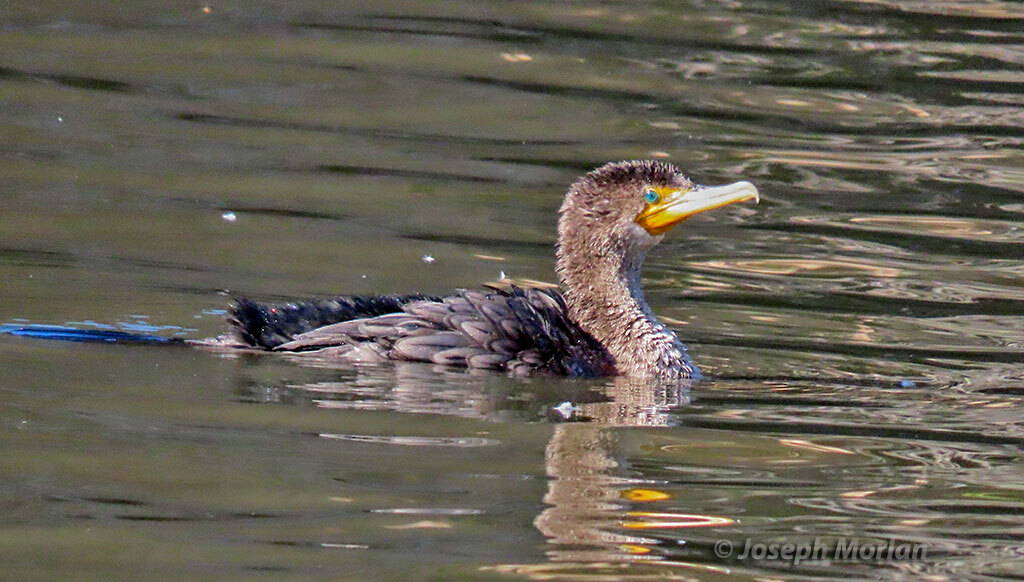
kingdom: Animalia
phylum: Chordata
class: Aves
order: Suliformes
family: Phalacrocoracidae
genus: Phalacrocorax
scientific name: Phalacrocorax auritus
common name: Double-crested cormorant
